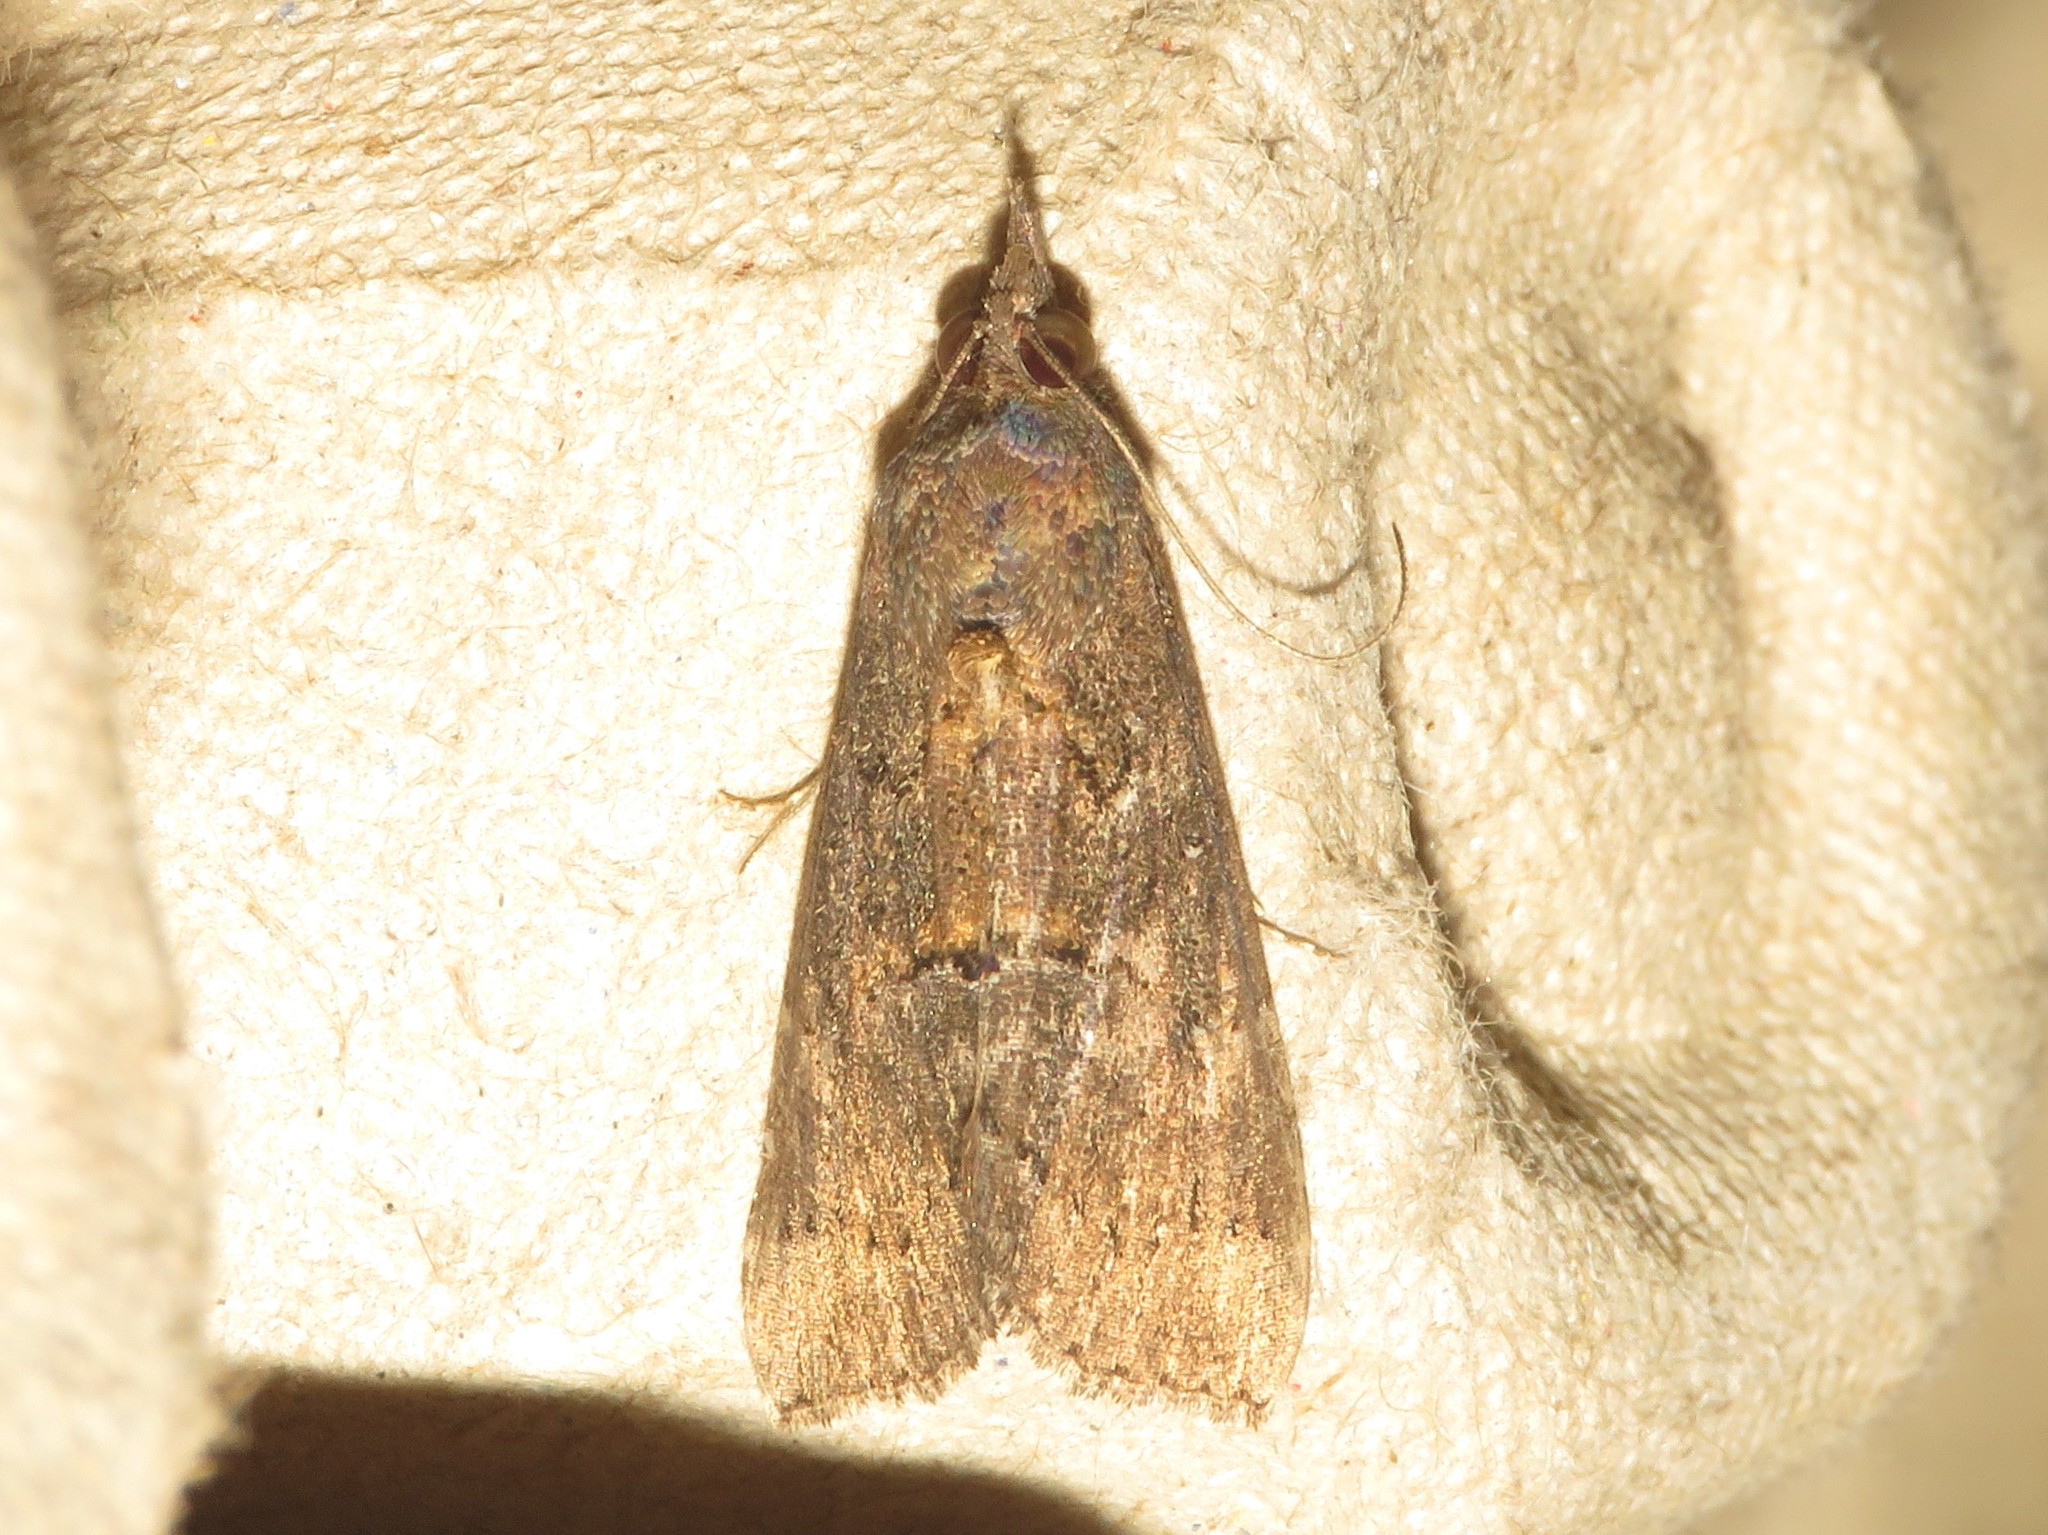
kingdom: Animalia
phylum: Arthropoda
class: Insecta
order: Lepidoptera
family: Erebidae
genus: Hypena
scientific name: Hypena scabra
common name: Green cloverworm
